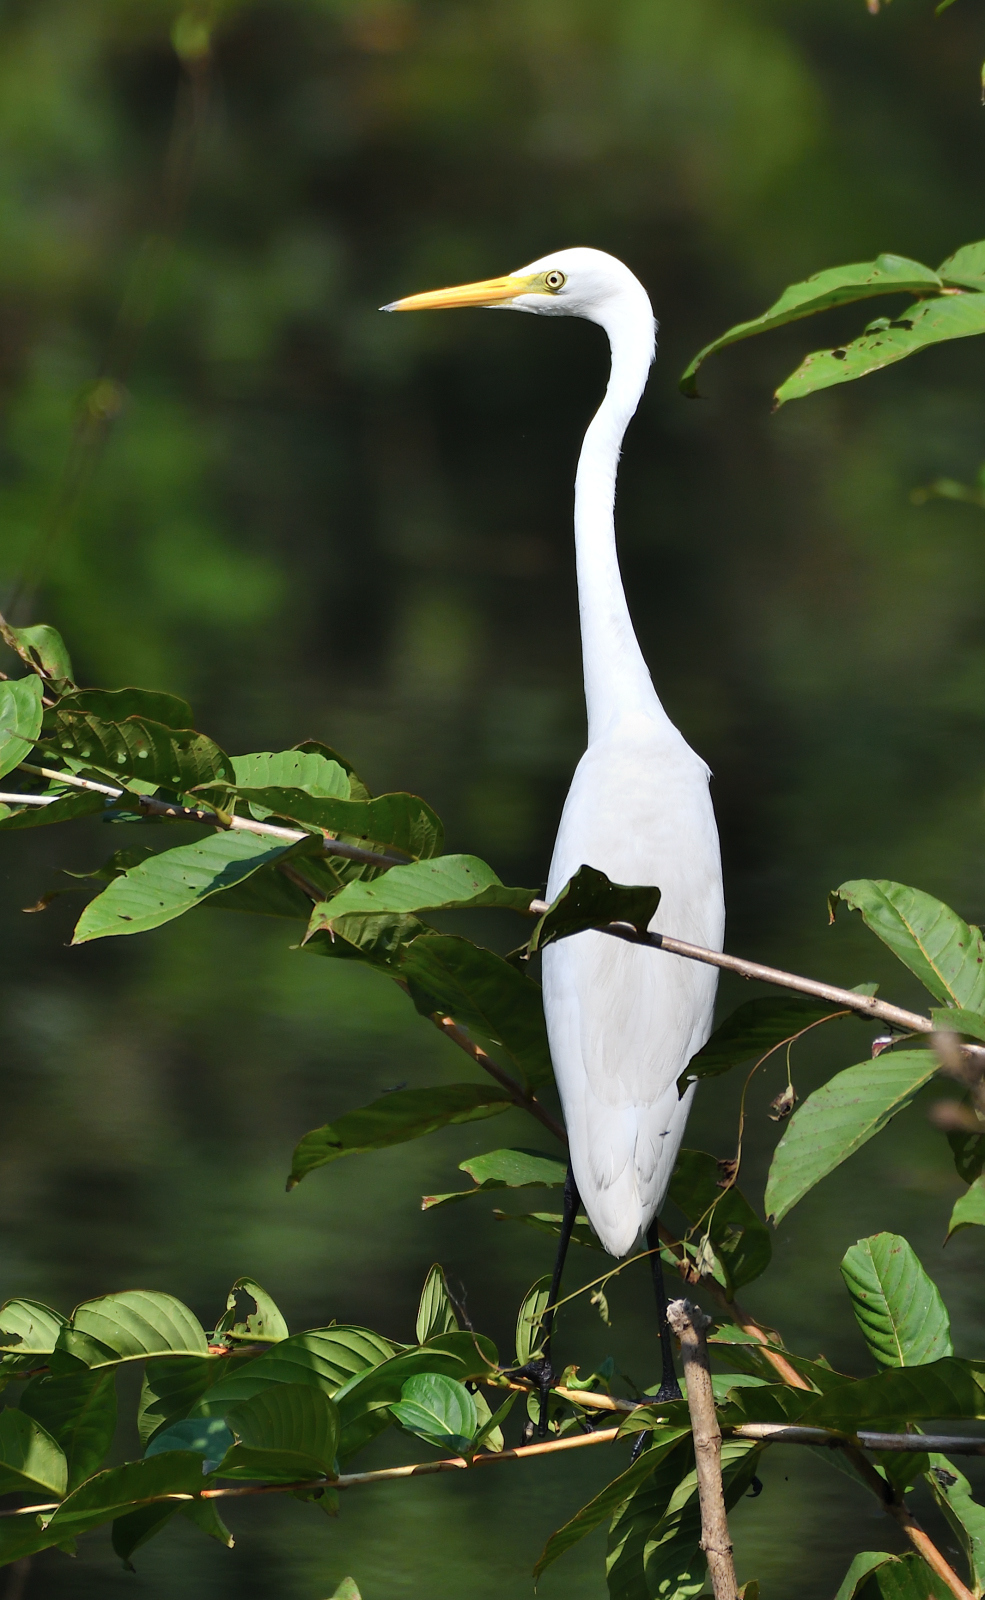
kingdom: Animalia
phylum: Chordata
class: Aves
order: Pelecaniformes
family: Ardeidae
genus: Egretta
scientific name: Egretta intermedia
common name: Intermediate egret
